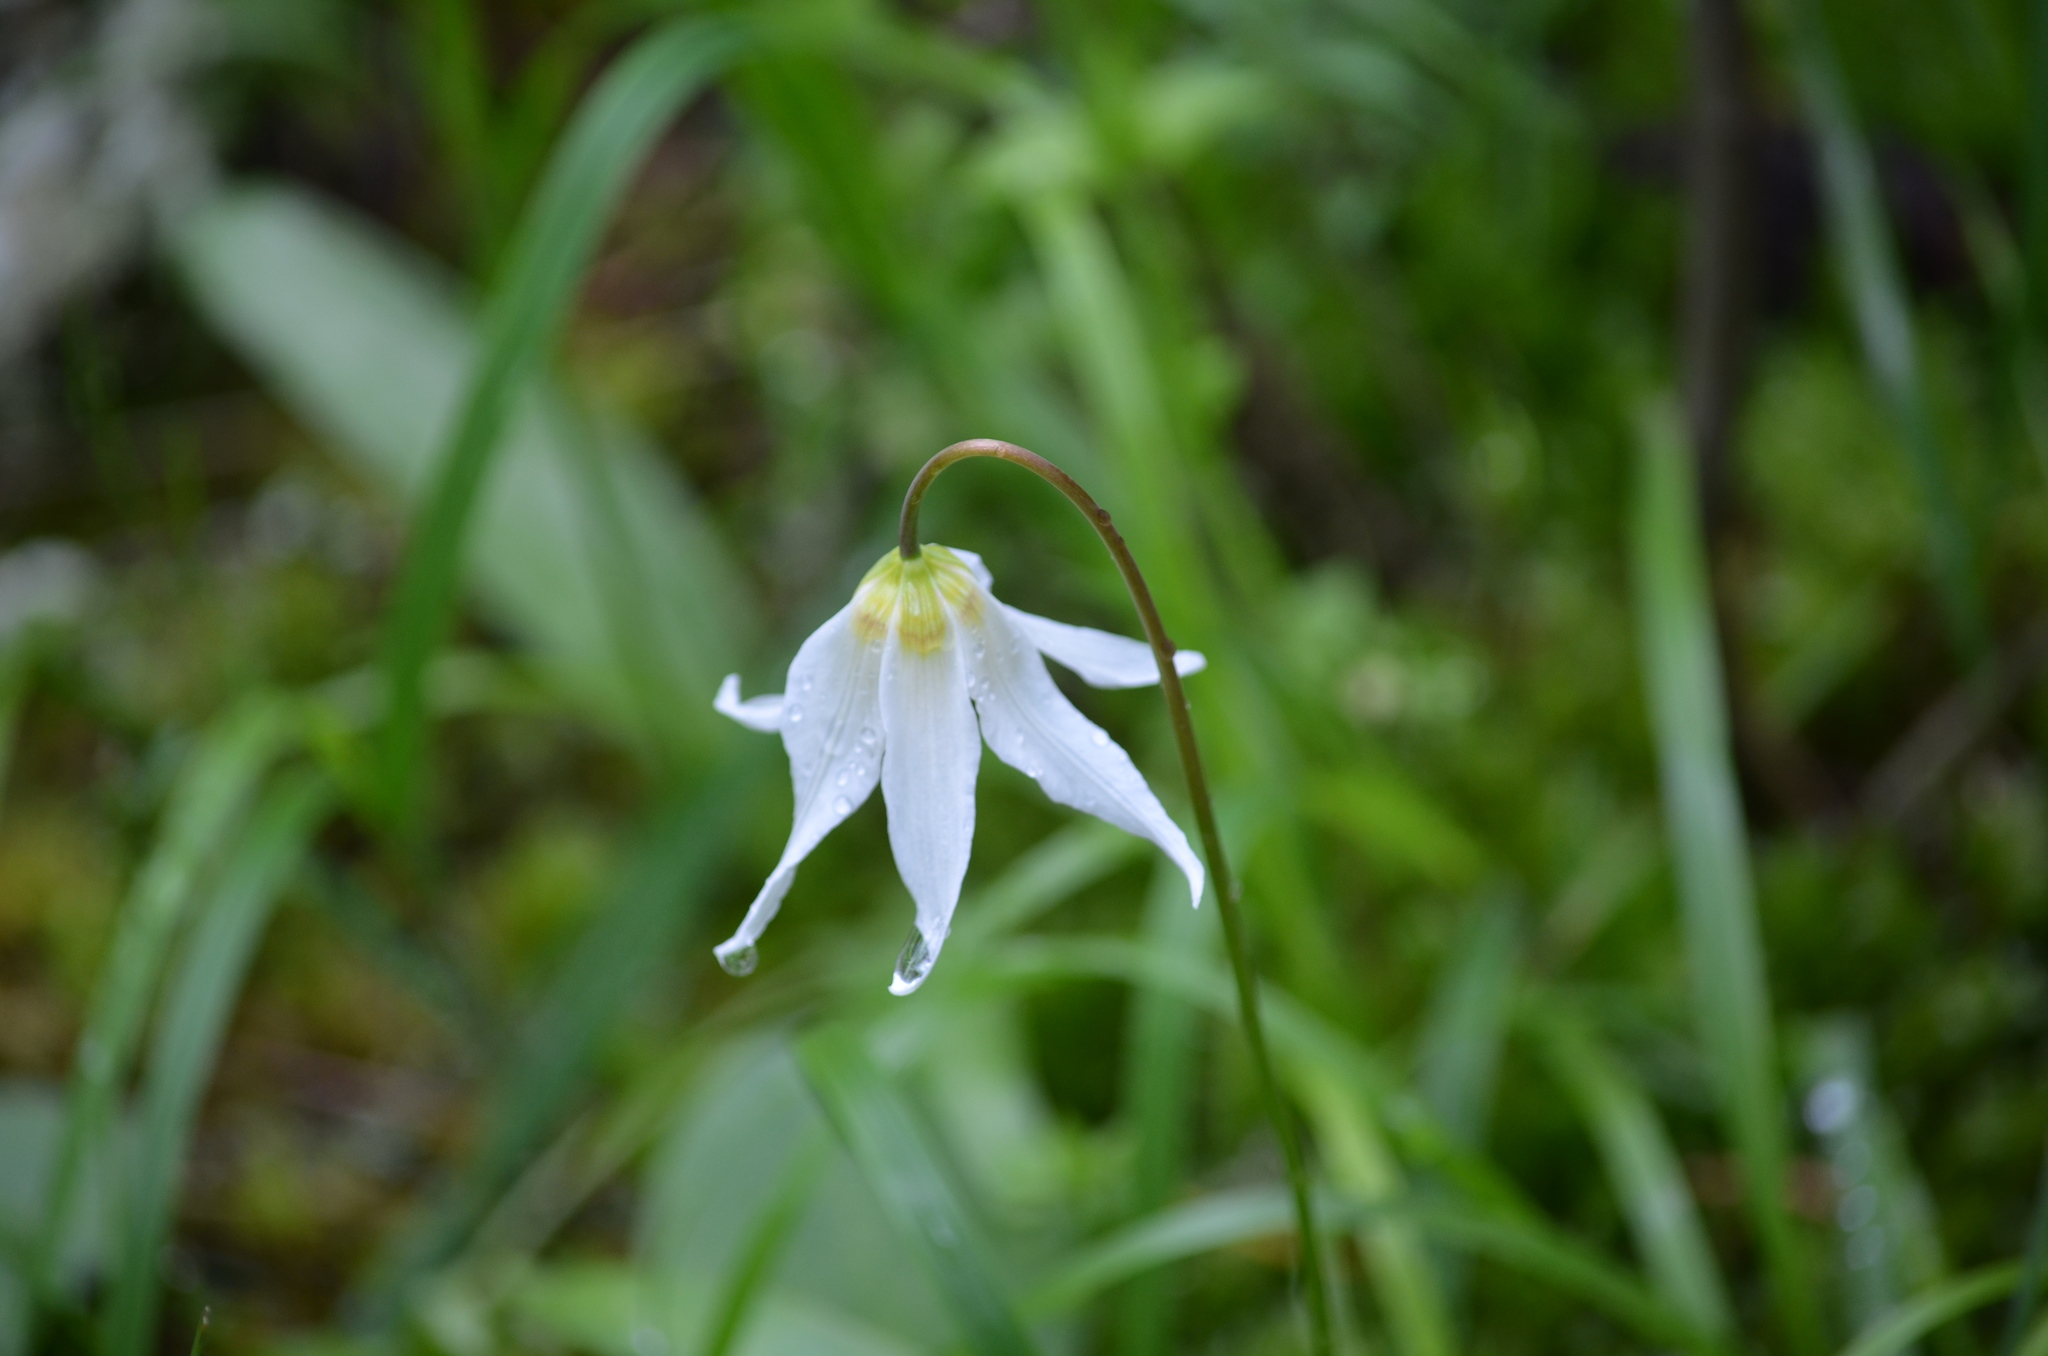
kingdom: Plantae
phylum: Tracheophyta
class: Liliopsida
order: Liliales
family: Liliaceae
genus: Erythronium
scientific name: Erythronium oregonum
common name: Giant adder's-tongue
